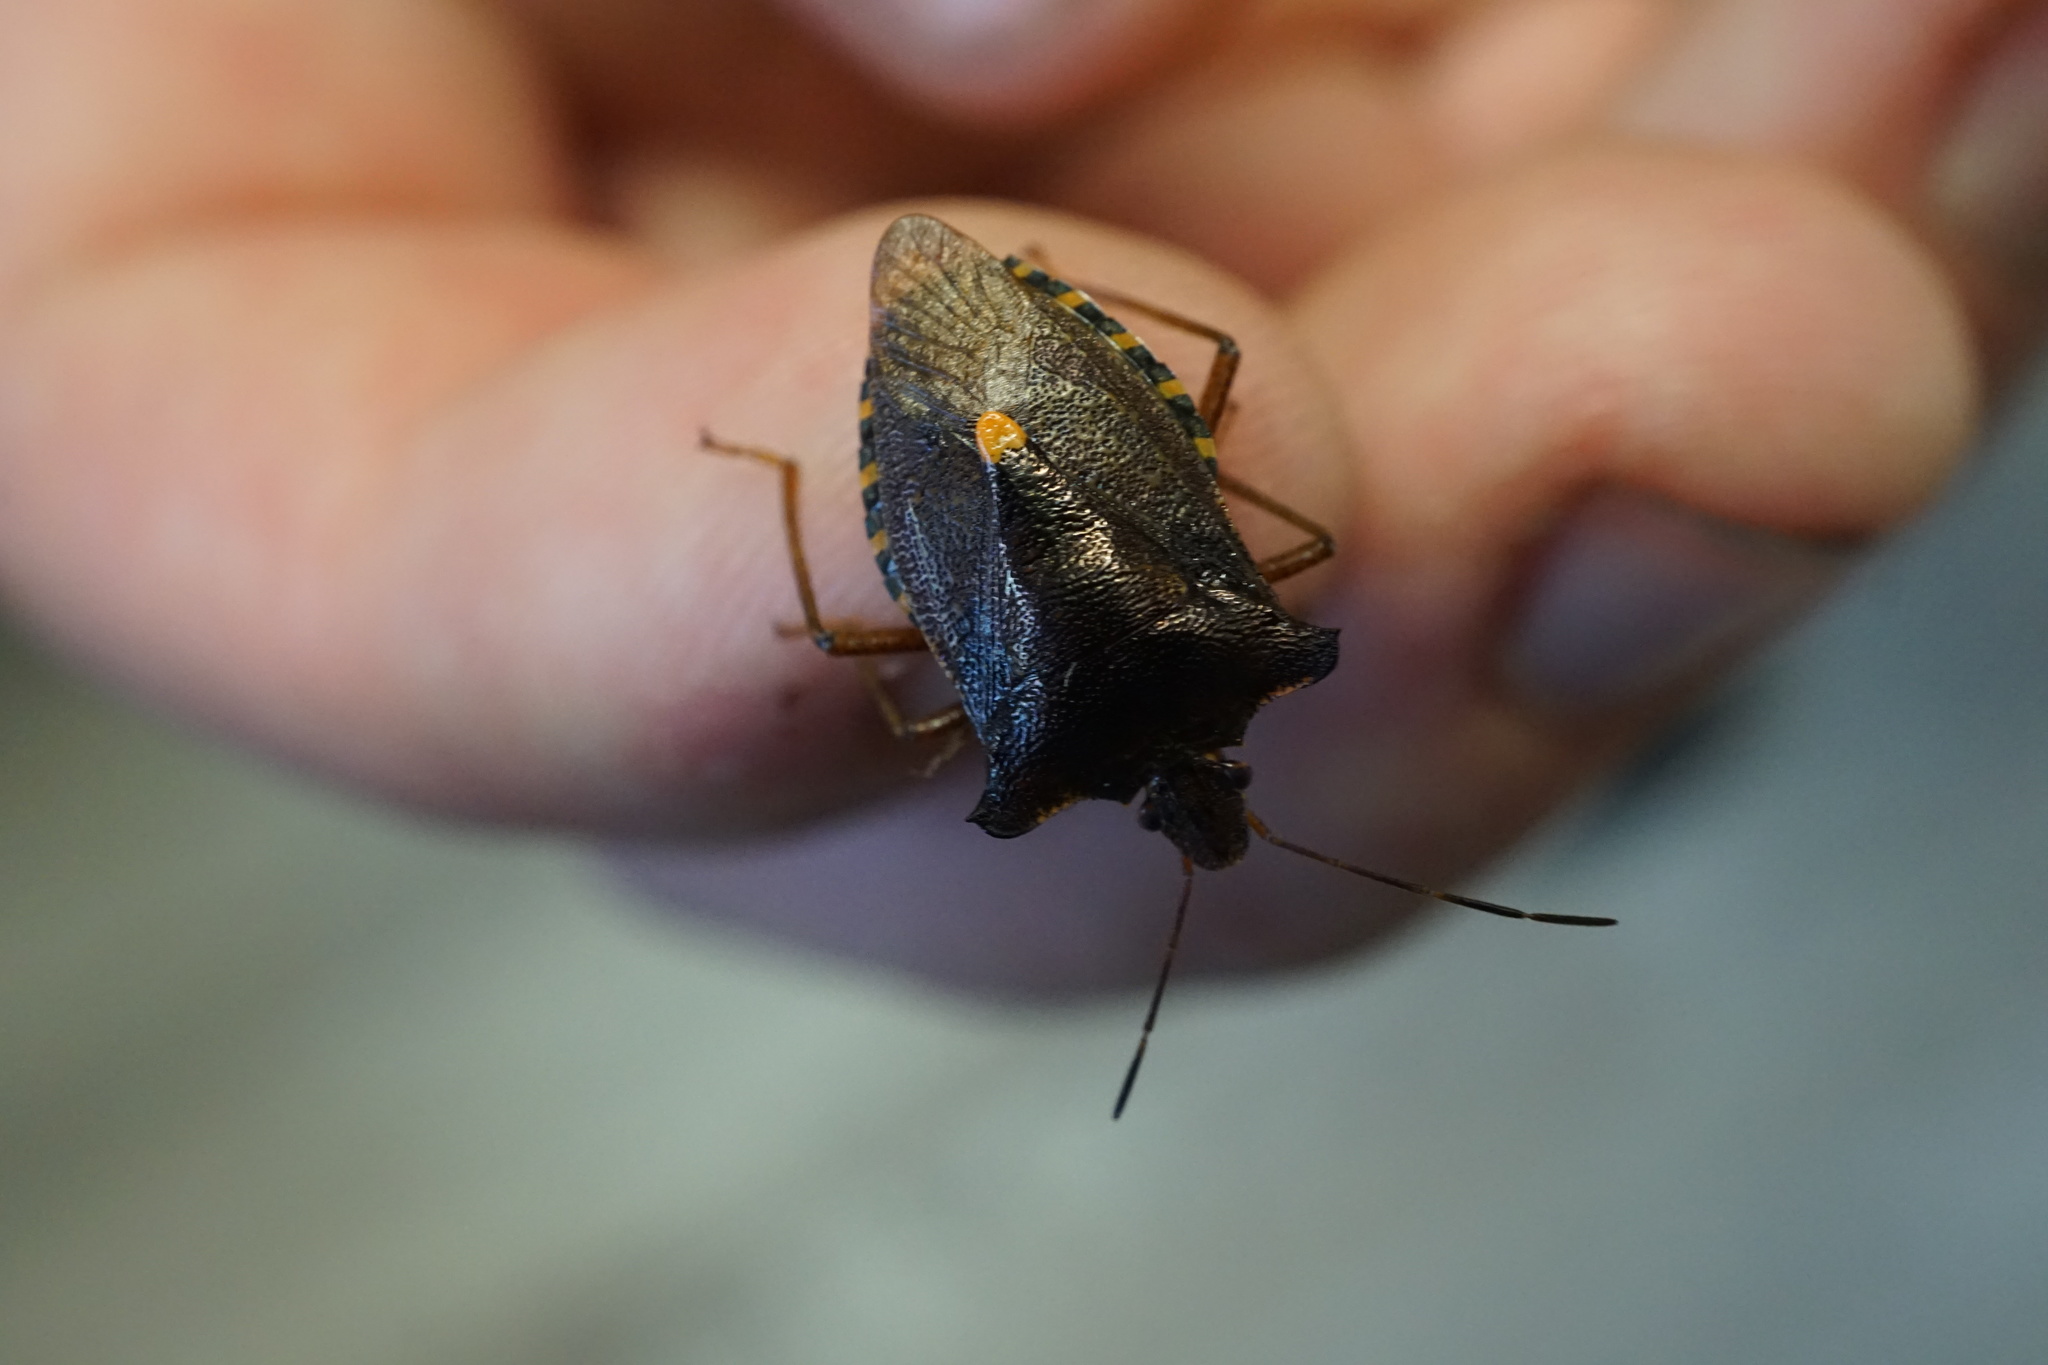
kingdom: Animalia
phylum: Arthropoda
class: Insecta
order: Hemiptera
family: Pentatomidae
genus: Pentatoma
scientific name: Pentatoma rufipes
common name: Forest bug
